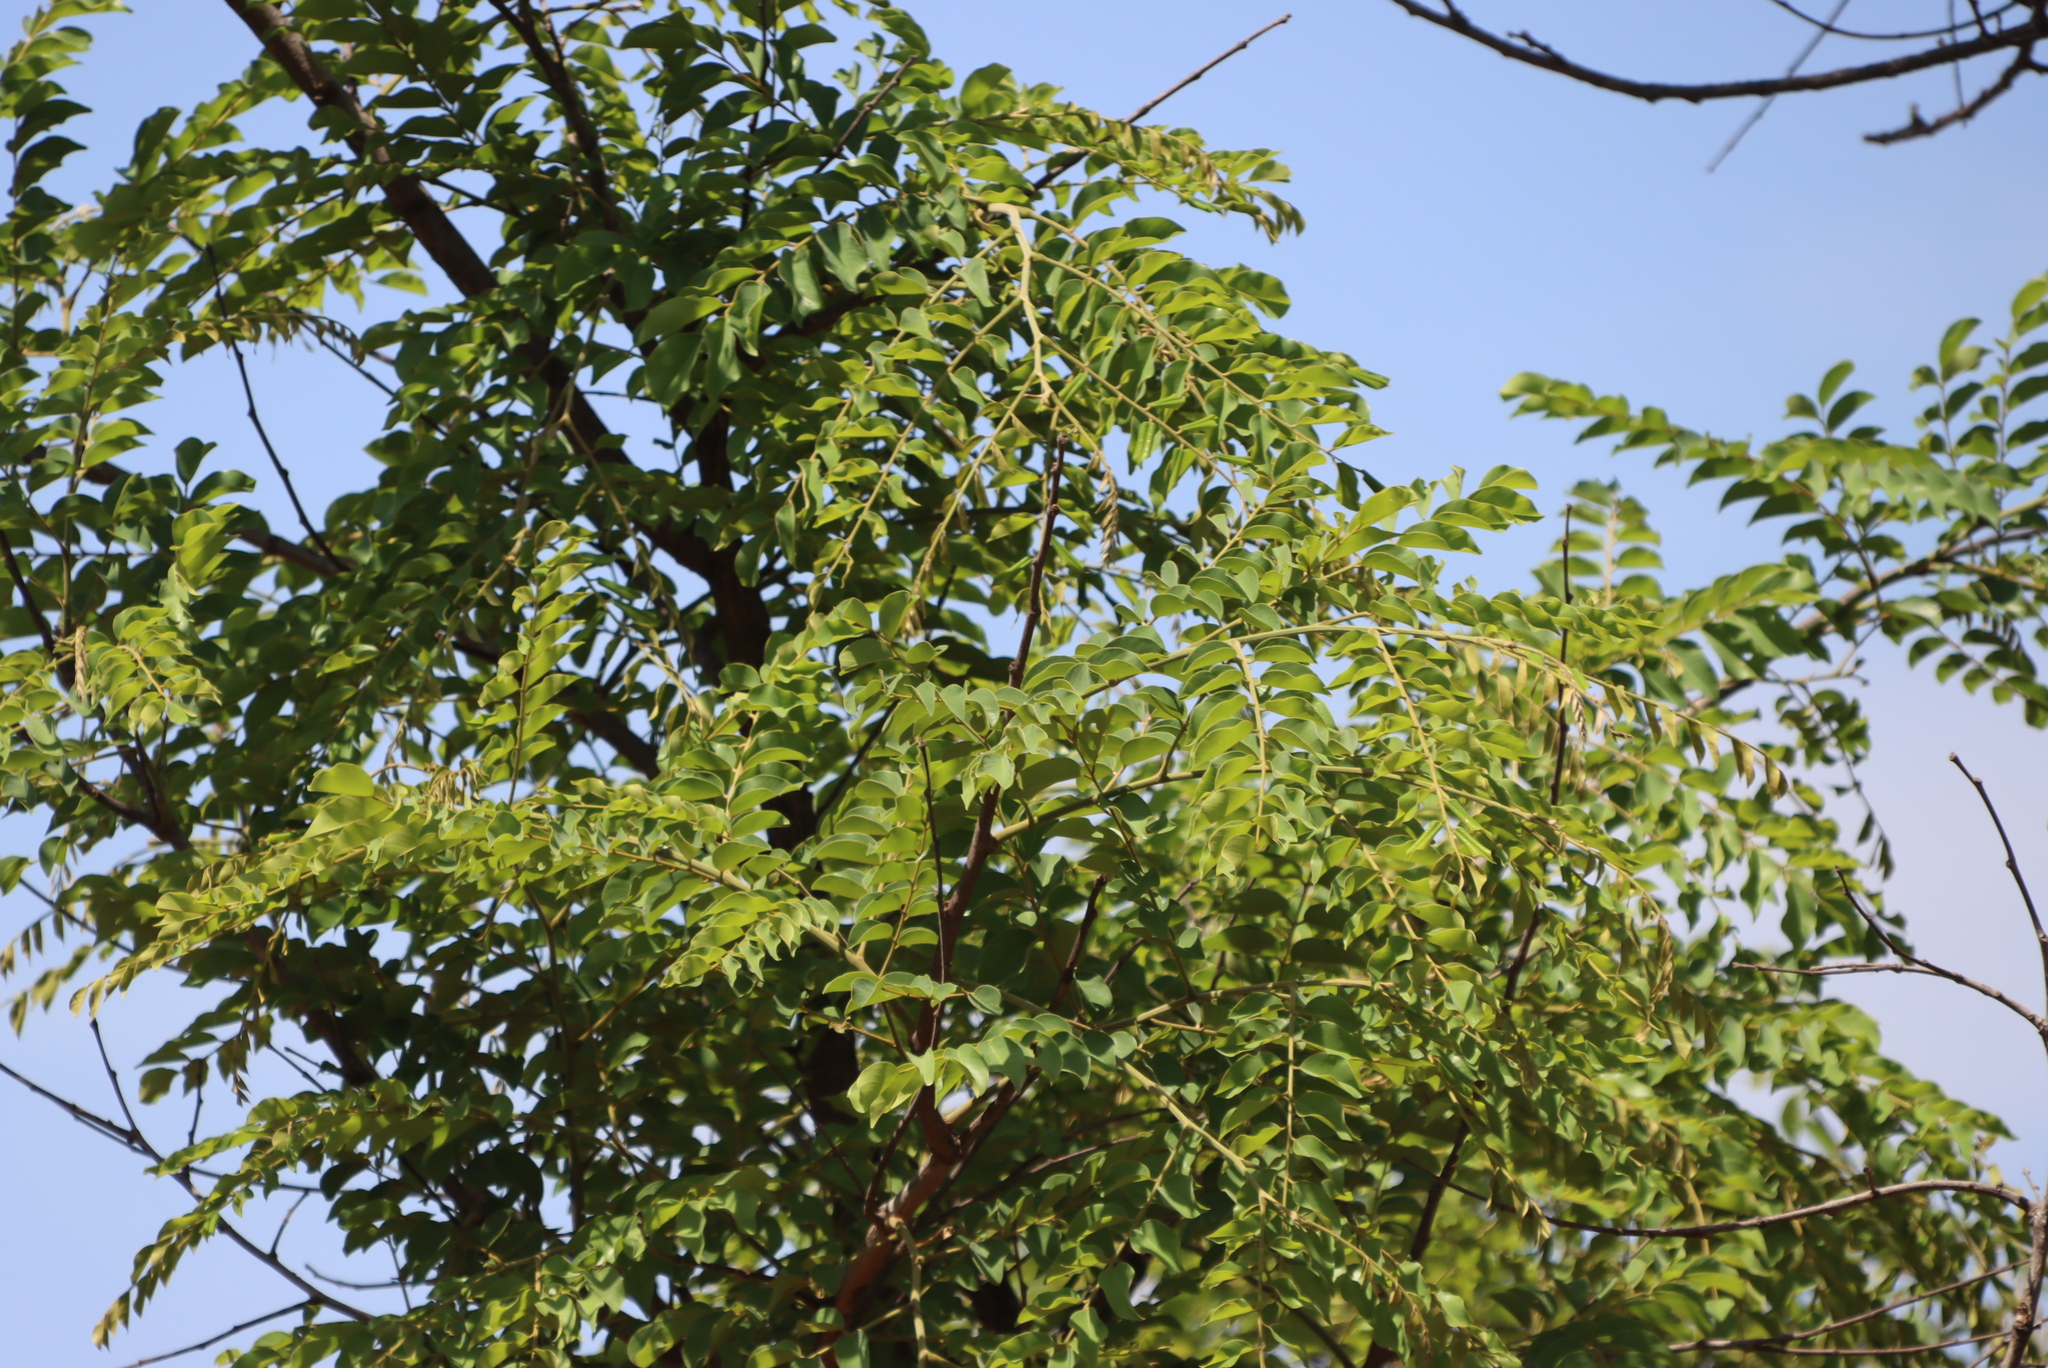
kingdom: Plantae
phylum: Tracheophyta
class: Magnoliopsida
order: Fabales
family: Fabaceae
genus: Pterocarpus
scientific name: Pterocarpus angolensis
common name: Bloodwood tree
